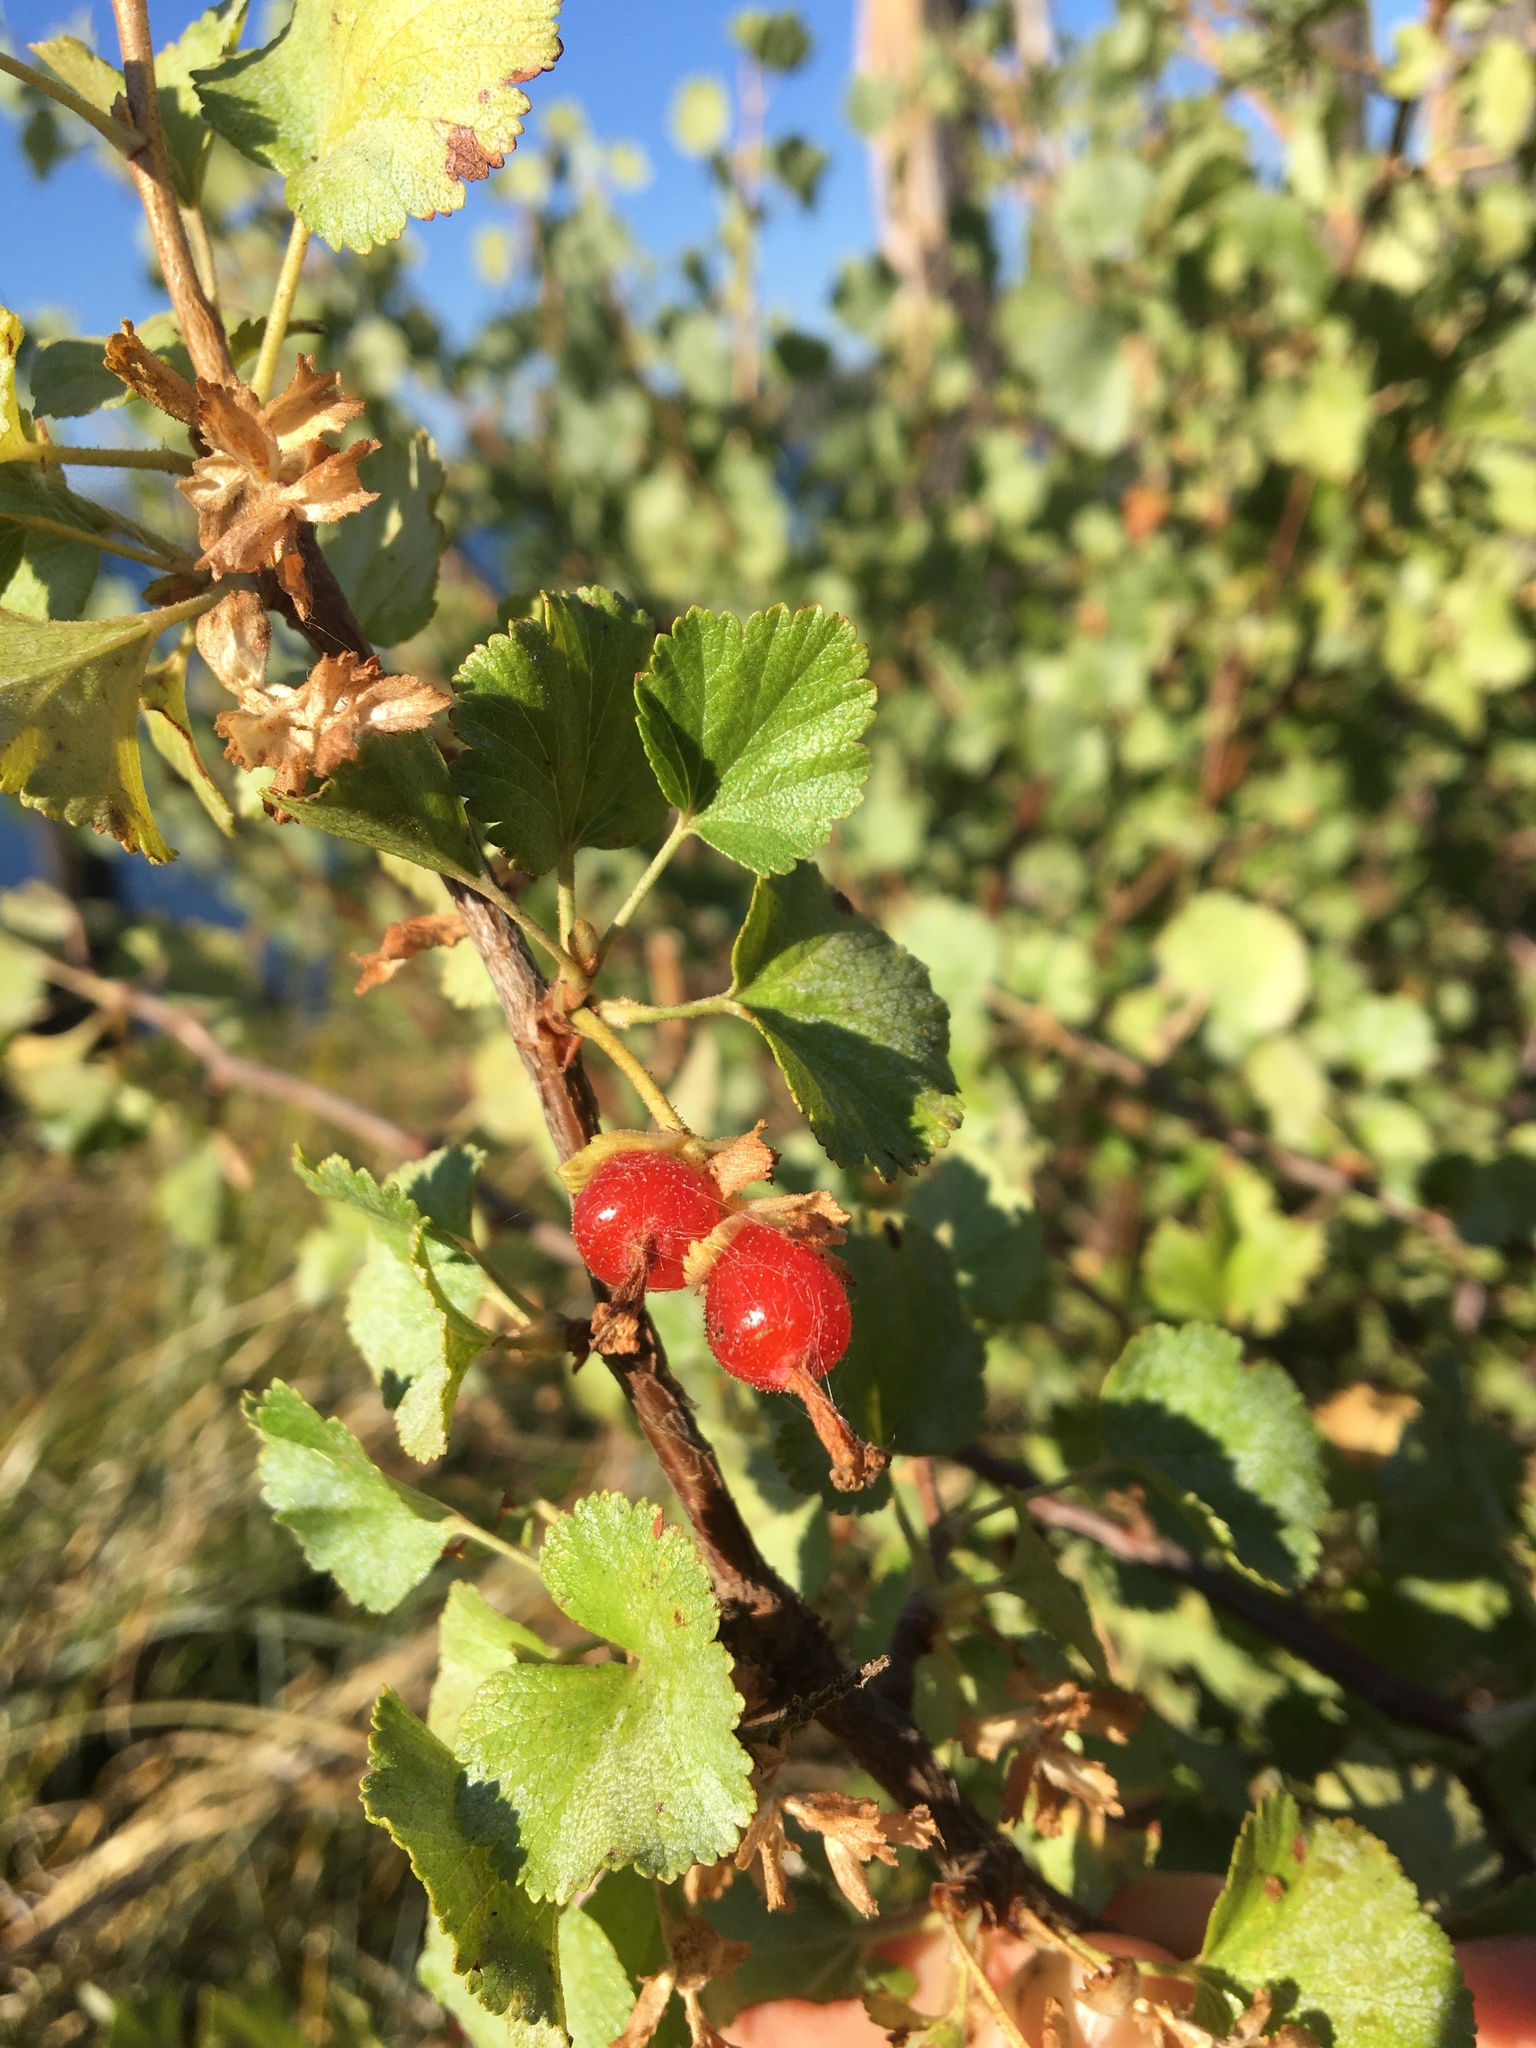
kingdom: Plantae
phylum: Tracheophyta
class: Magnoliopsida
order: Saxifragales
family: Grossulariaceae
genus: Ribes
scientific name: Ribes cereum
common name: Wax currant
